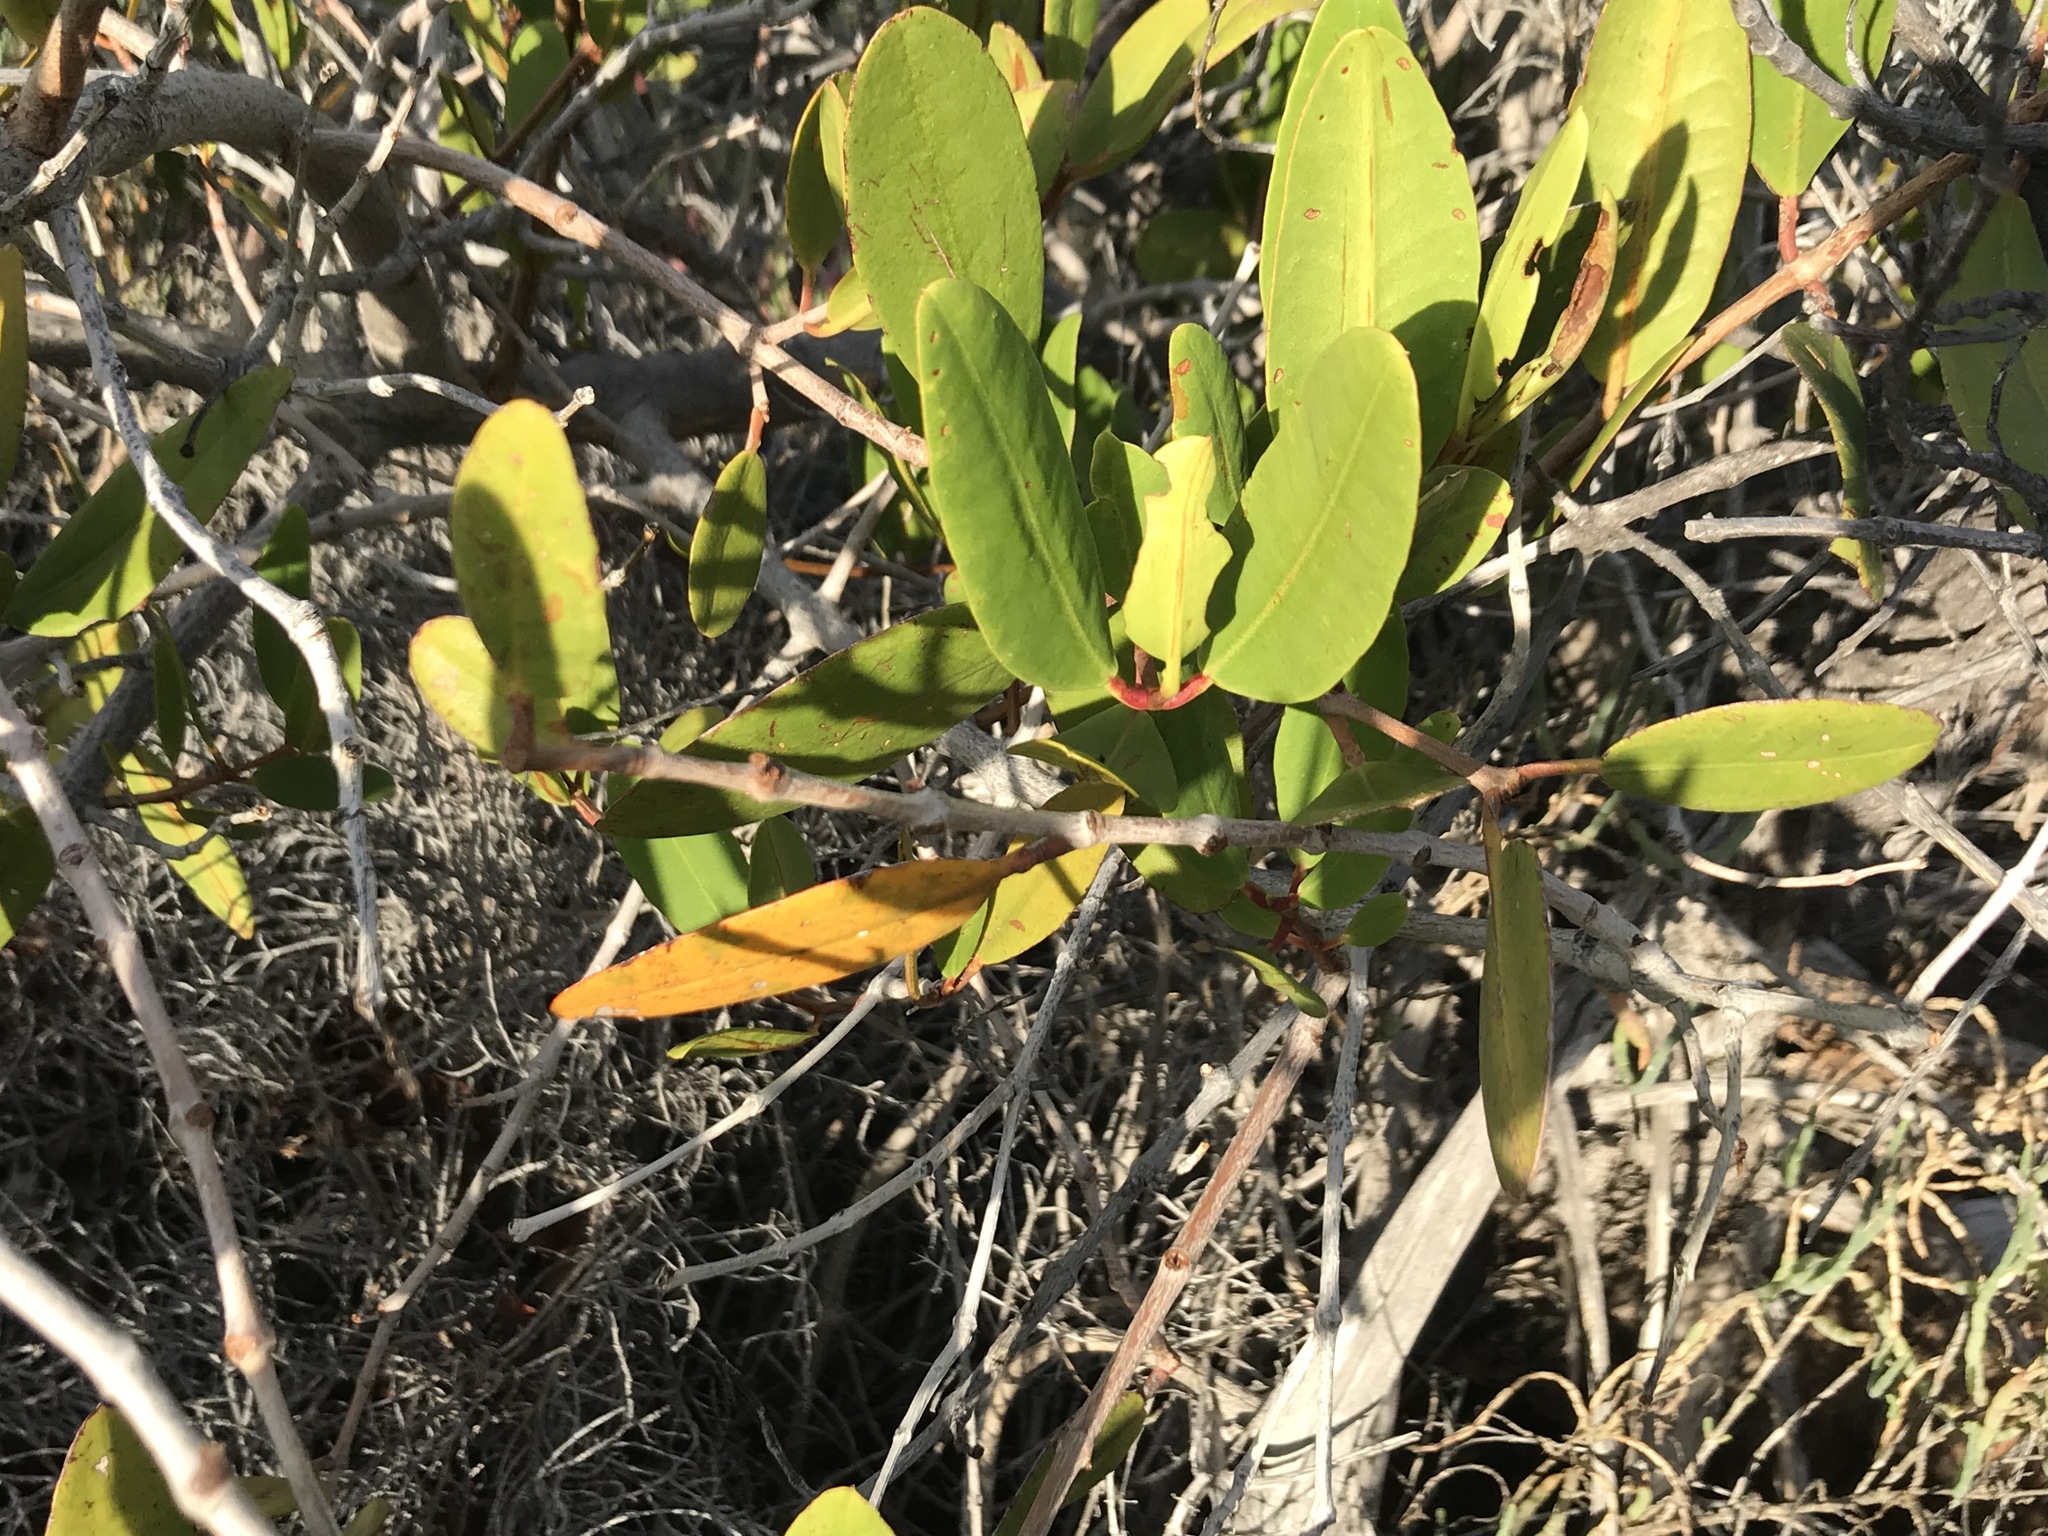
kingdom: Plantae
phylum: Tracheophyta
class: Magnoliopsida
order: Myrtales
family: Combretaceae
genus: Laguncularia
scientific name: Laguncularia racemosa
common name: White mangrove
